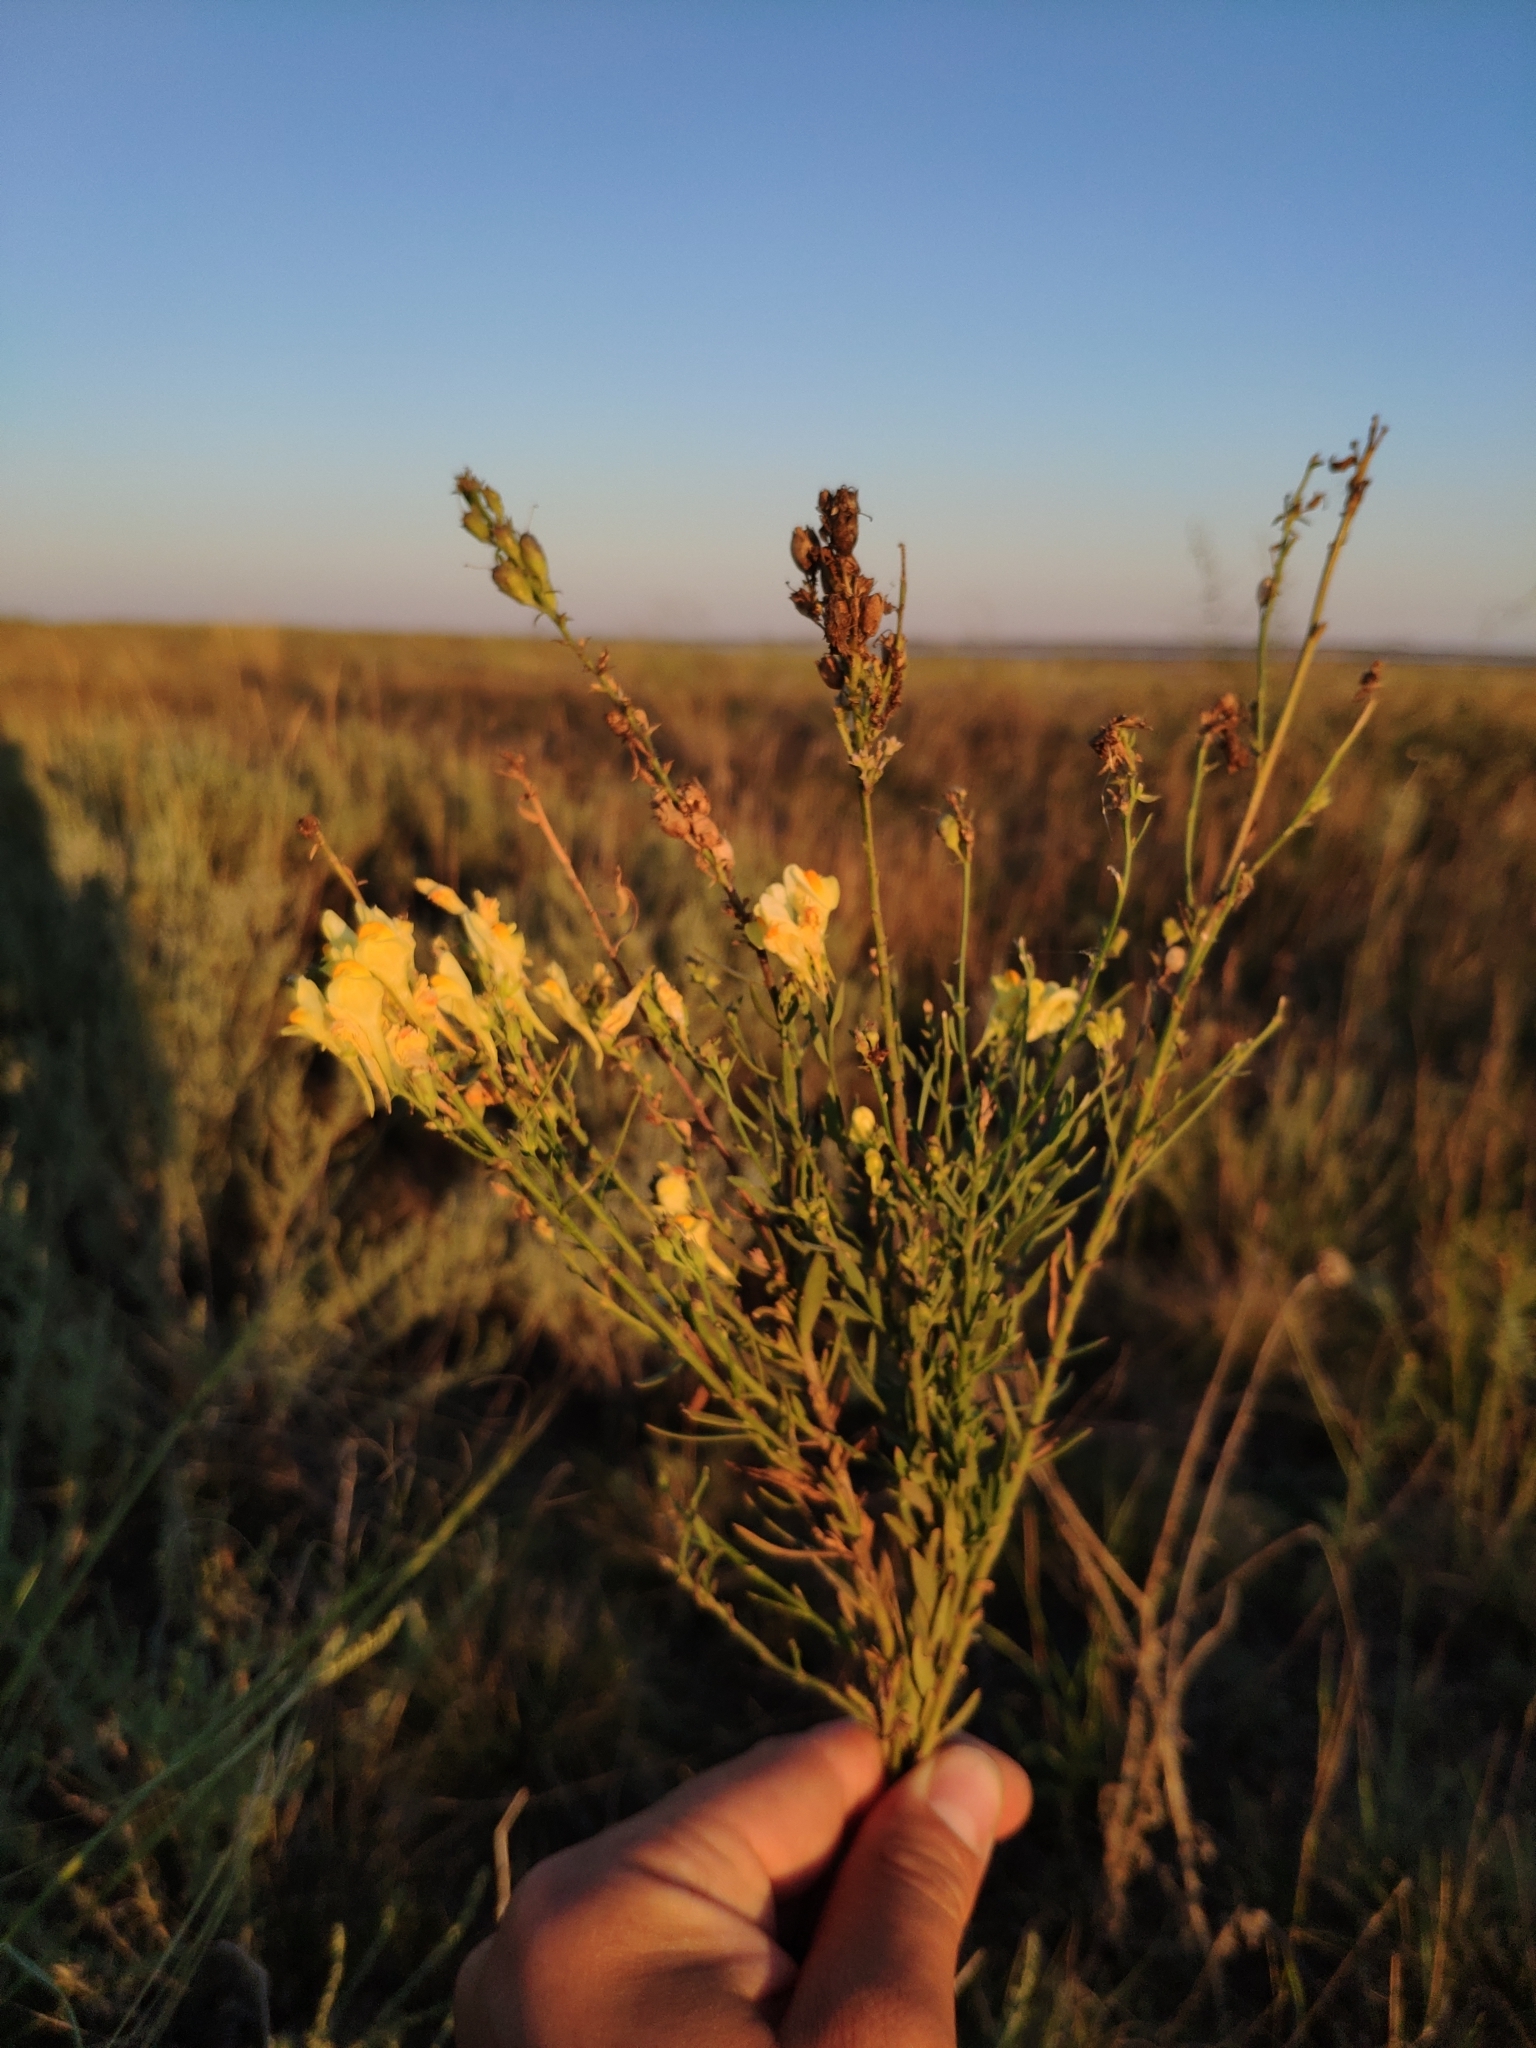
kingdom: Plantae
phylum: Tracheophyta
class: Magnoliopsida
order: Lamiales
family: Plantaginaceae
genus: Linaria
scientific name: Linaria biebersteinii
